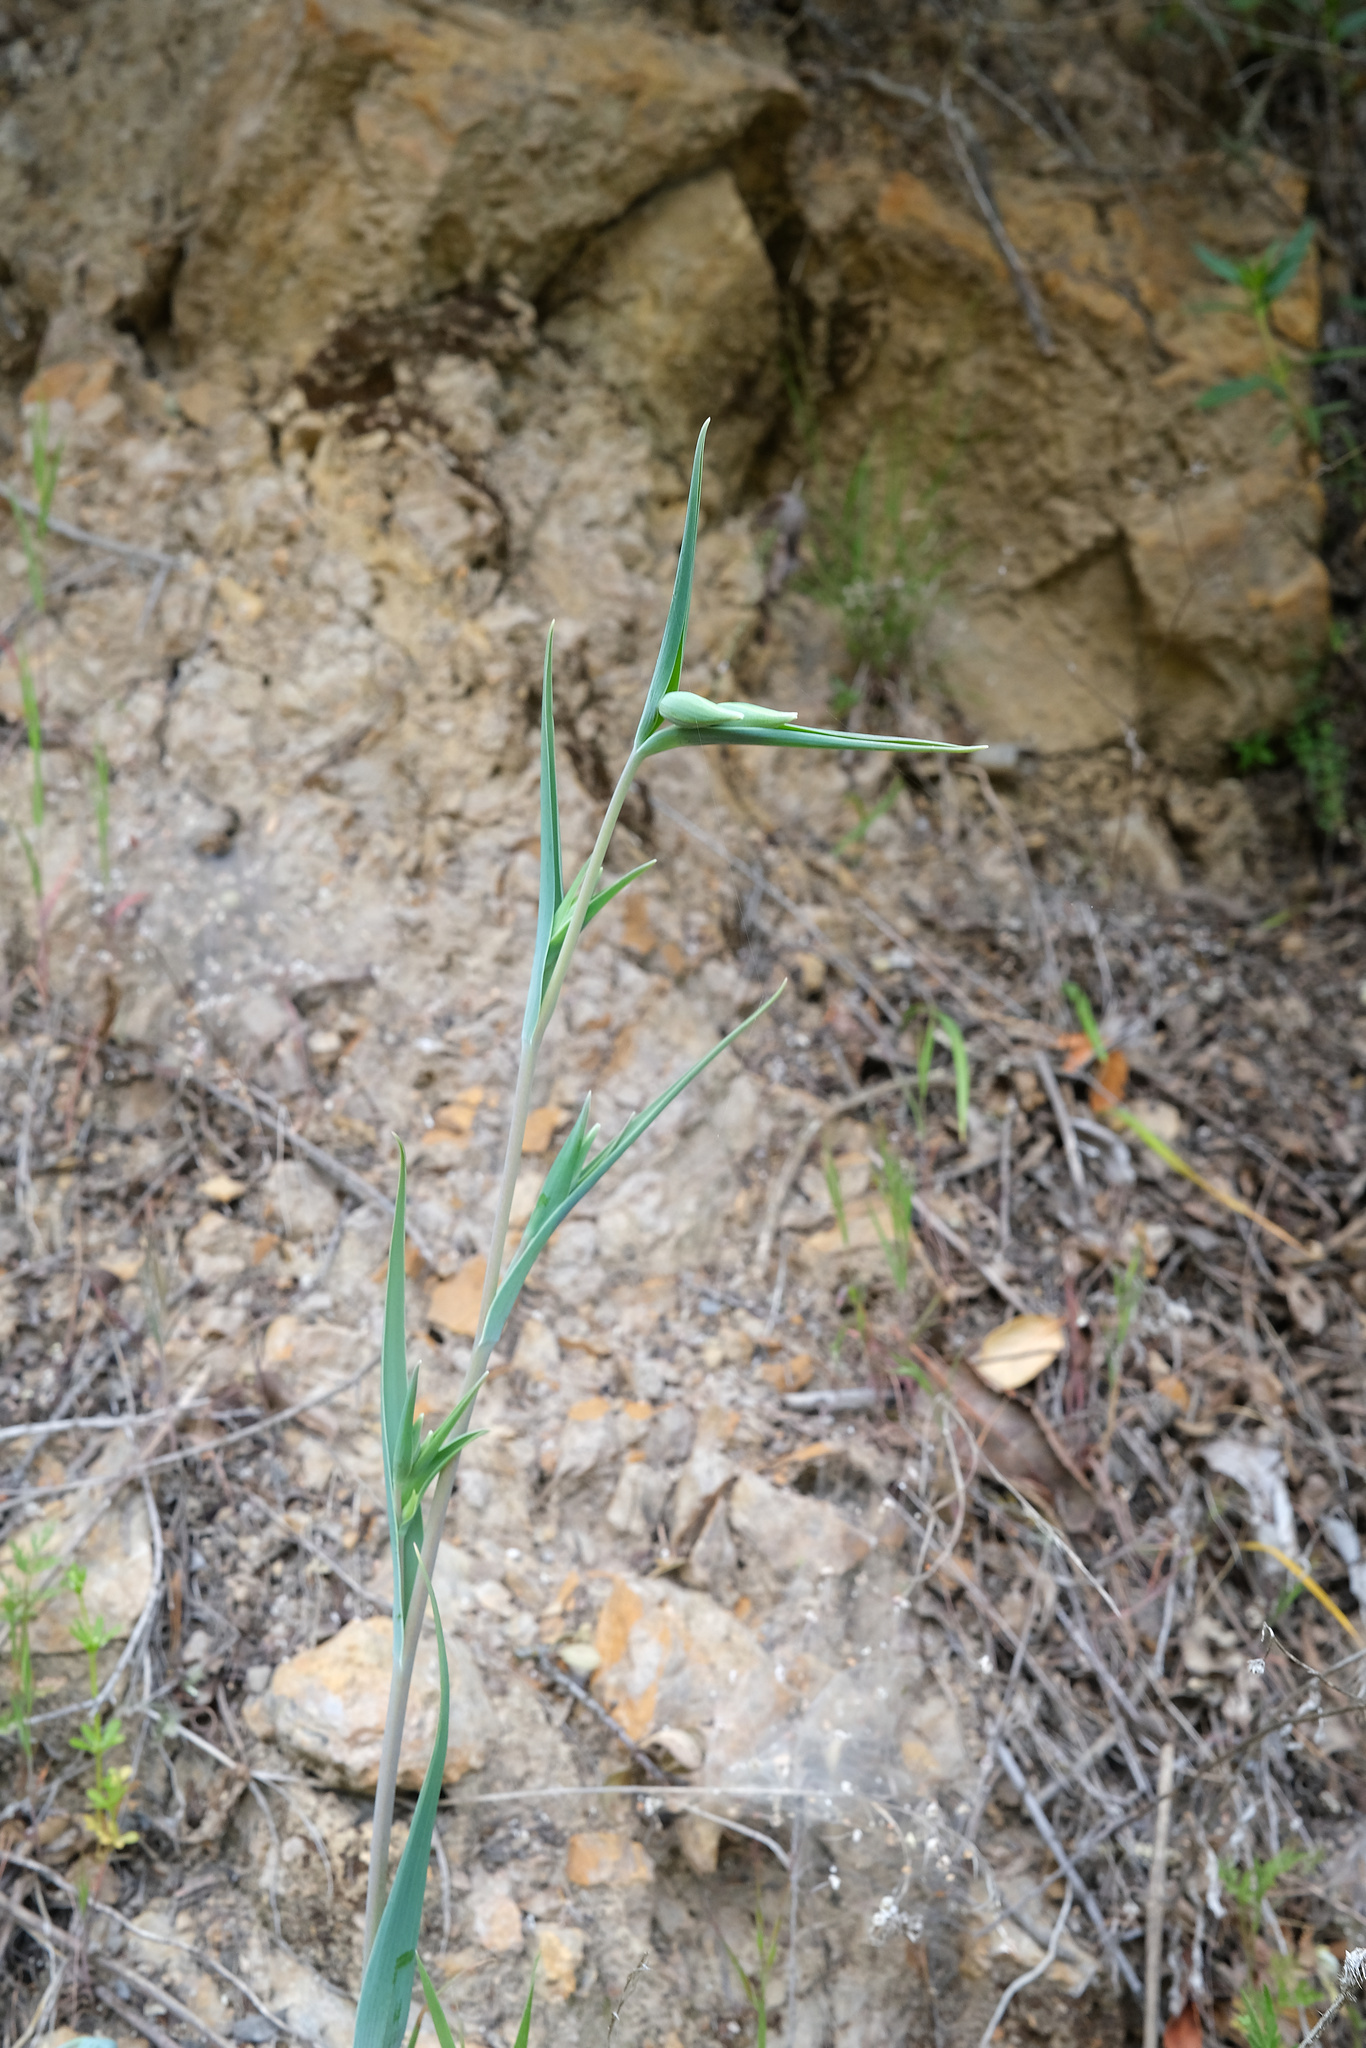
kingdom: Plantae
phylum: Tracheophyta
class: Liliopsida
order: Liliales
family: Liliaceae
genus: Calochortus
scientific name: Calochortus albus
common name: Fairy-lantern
